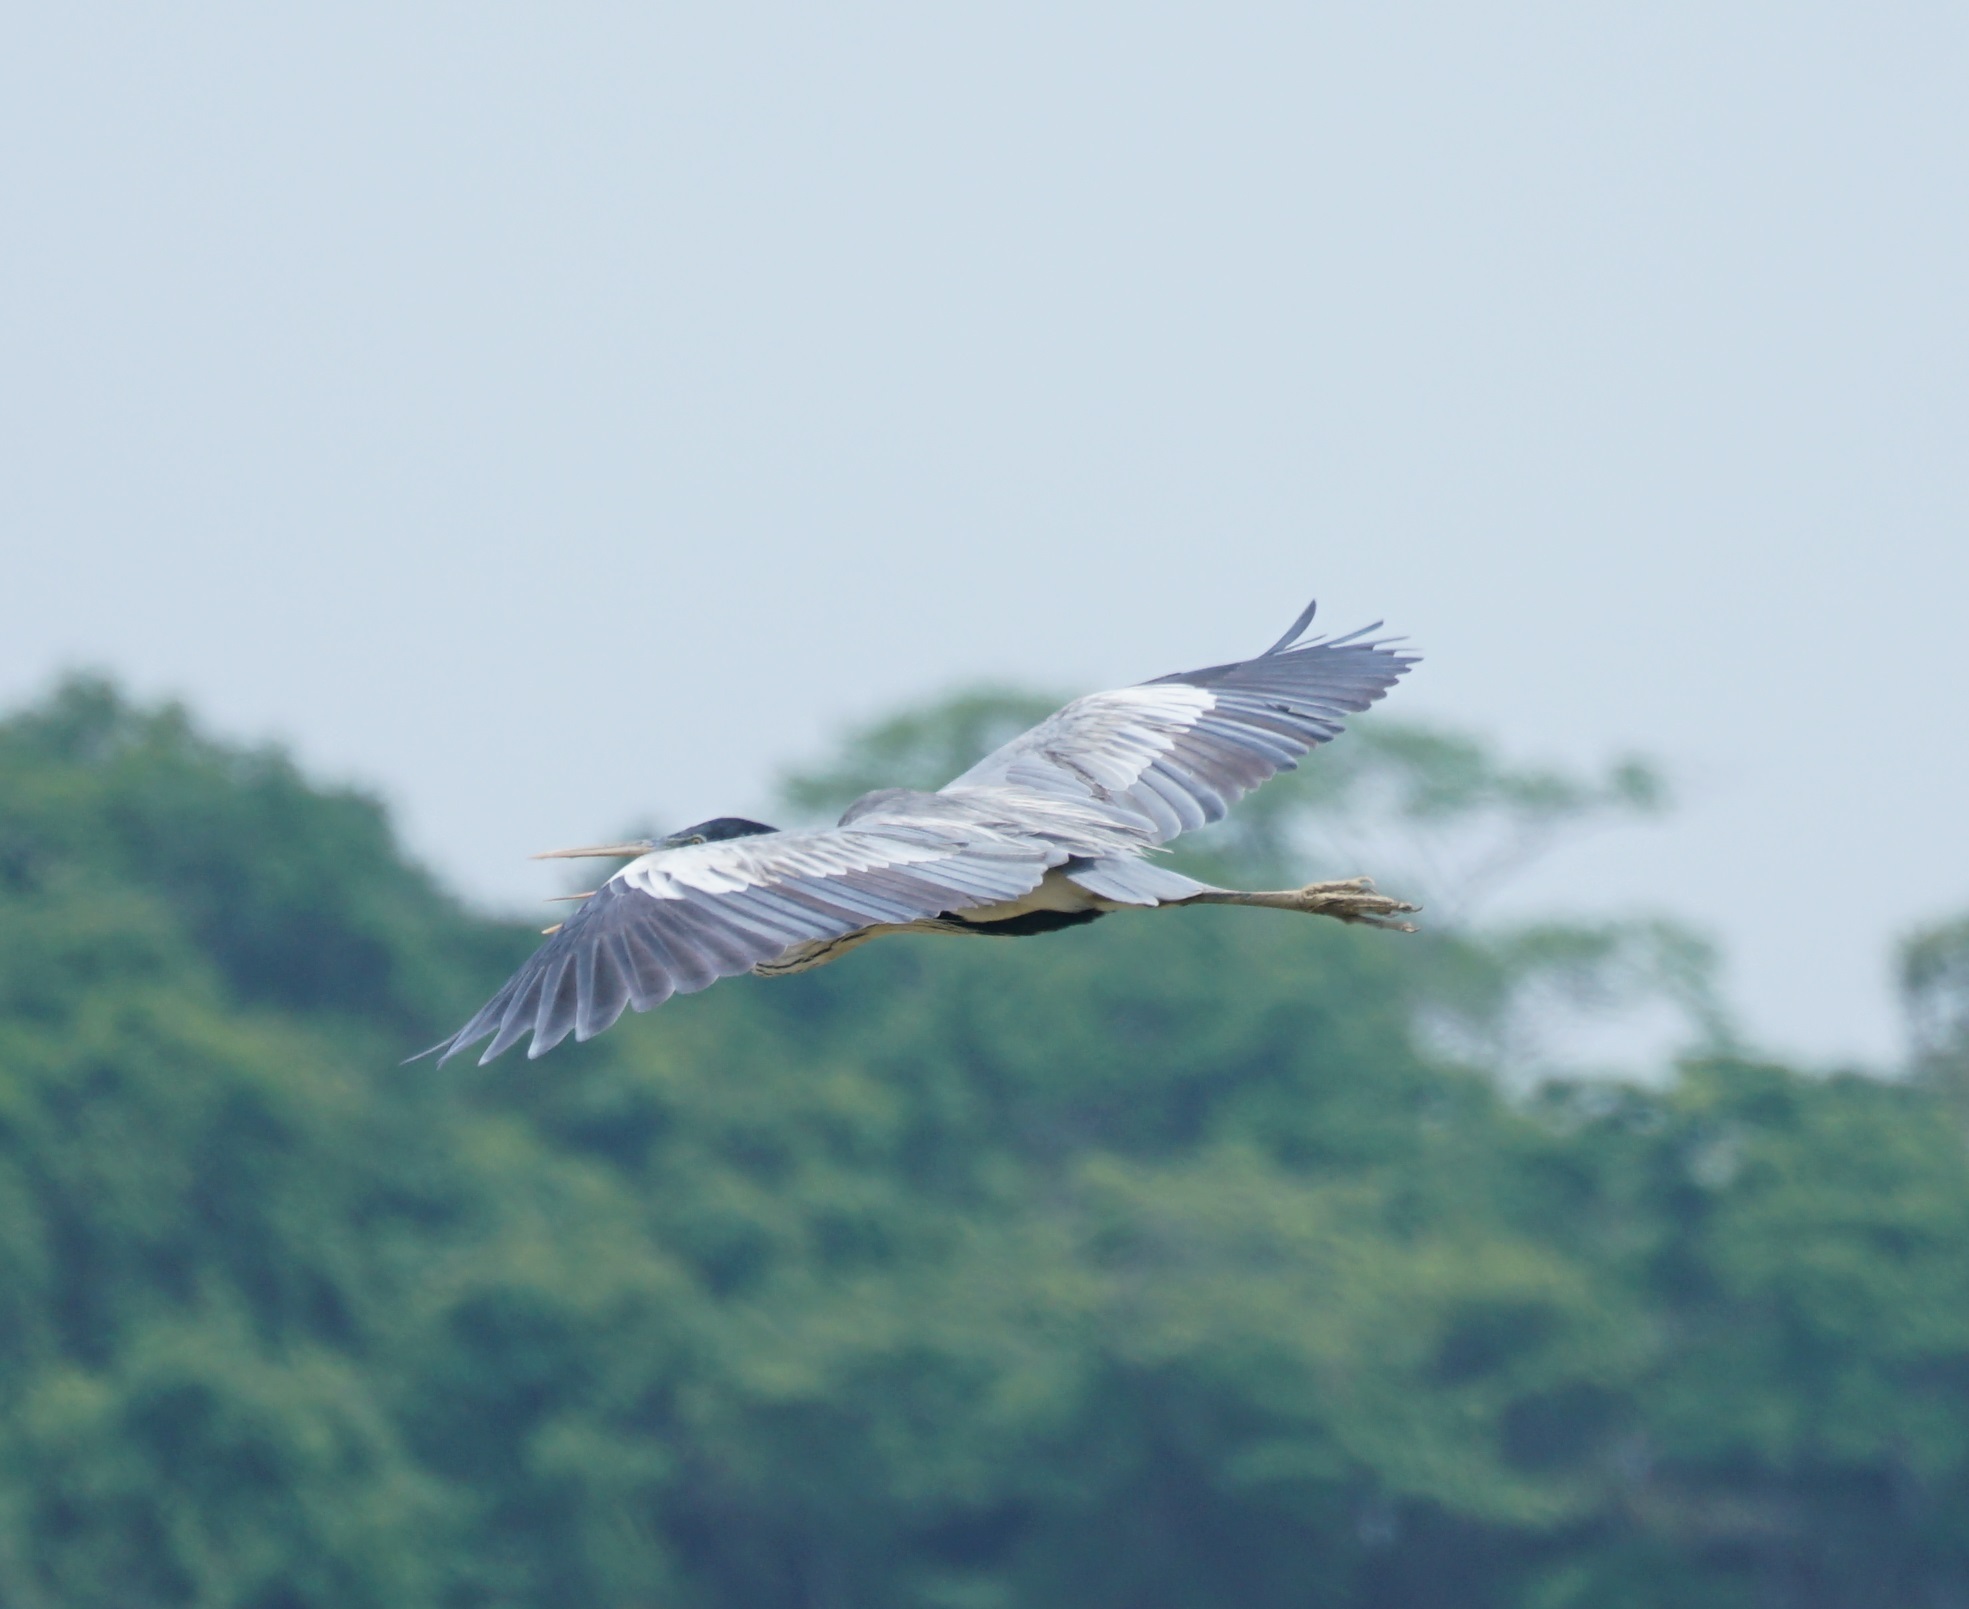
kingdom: Animalia
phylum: Chordata
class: Aves
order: Pelecaniformes
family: Ardeidae
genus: Ardea
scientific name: Ardea cocoi
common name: Cocoi heron
